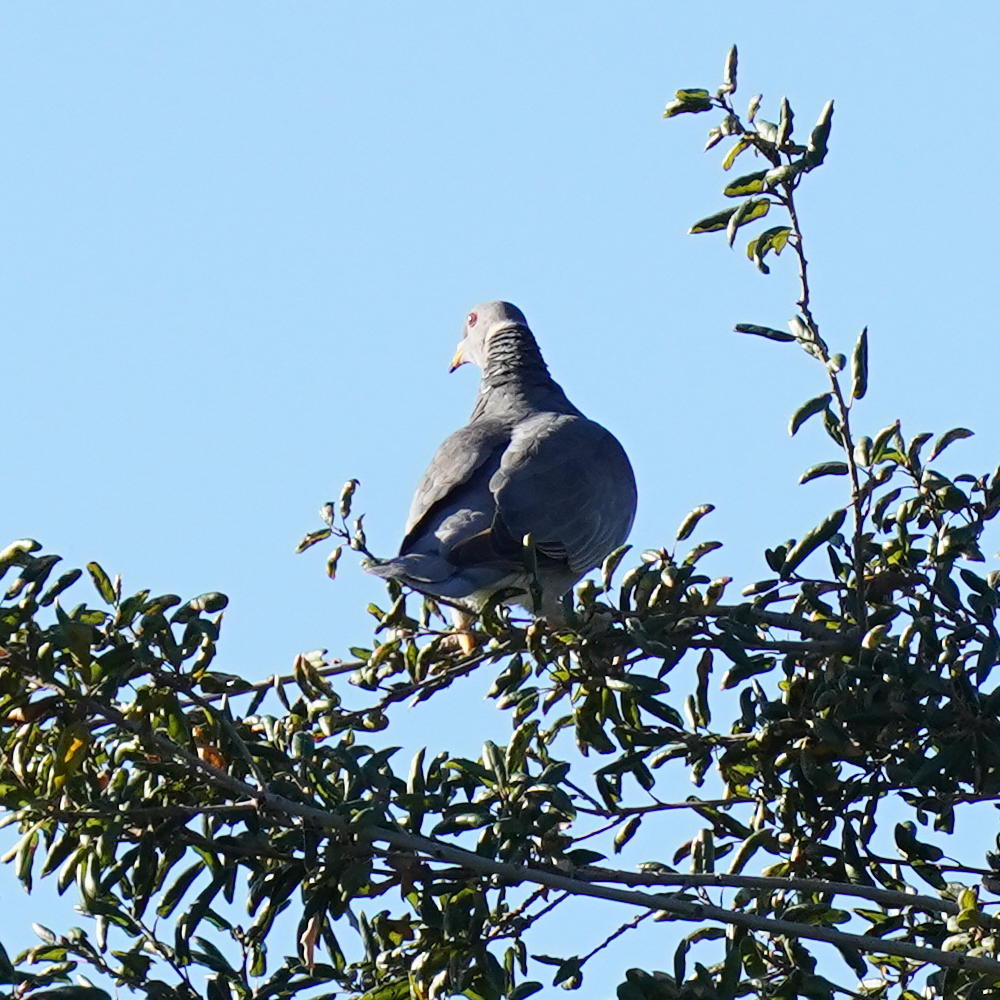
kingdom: Animalia
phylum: Chordata
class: Aves
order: Columbiformes
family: Columbidae
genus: Patagioenas
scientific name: Patagioenas fasciata
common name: Band-tailed pigeon
